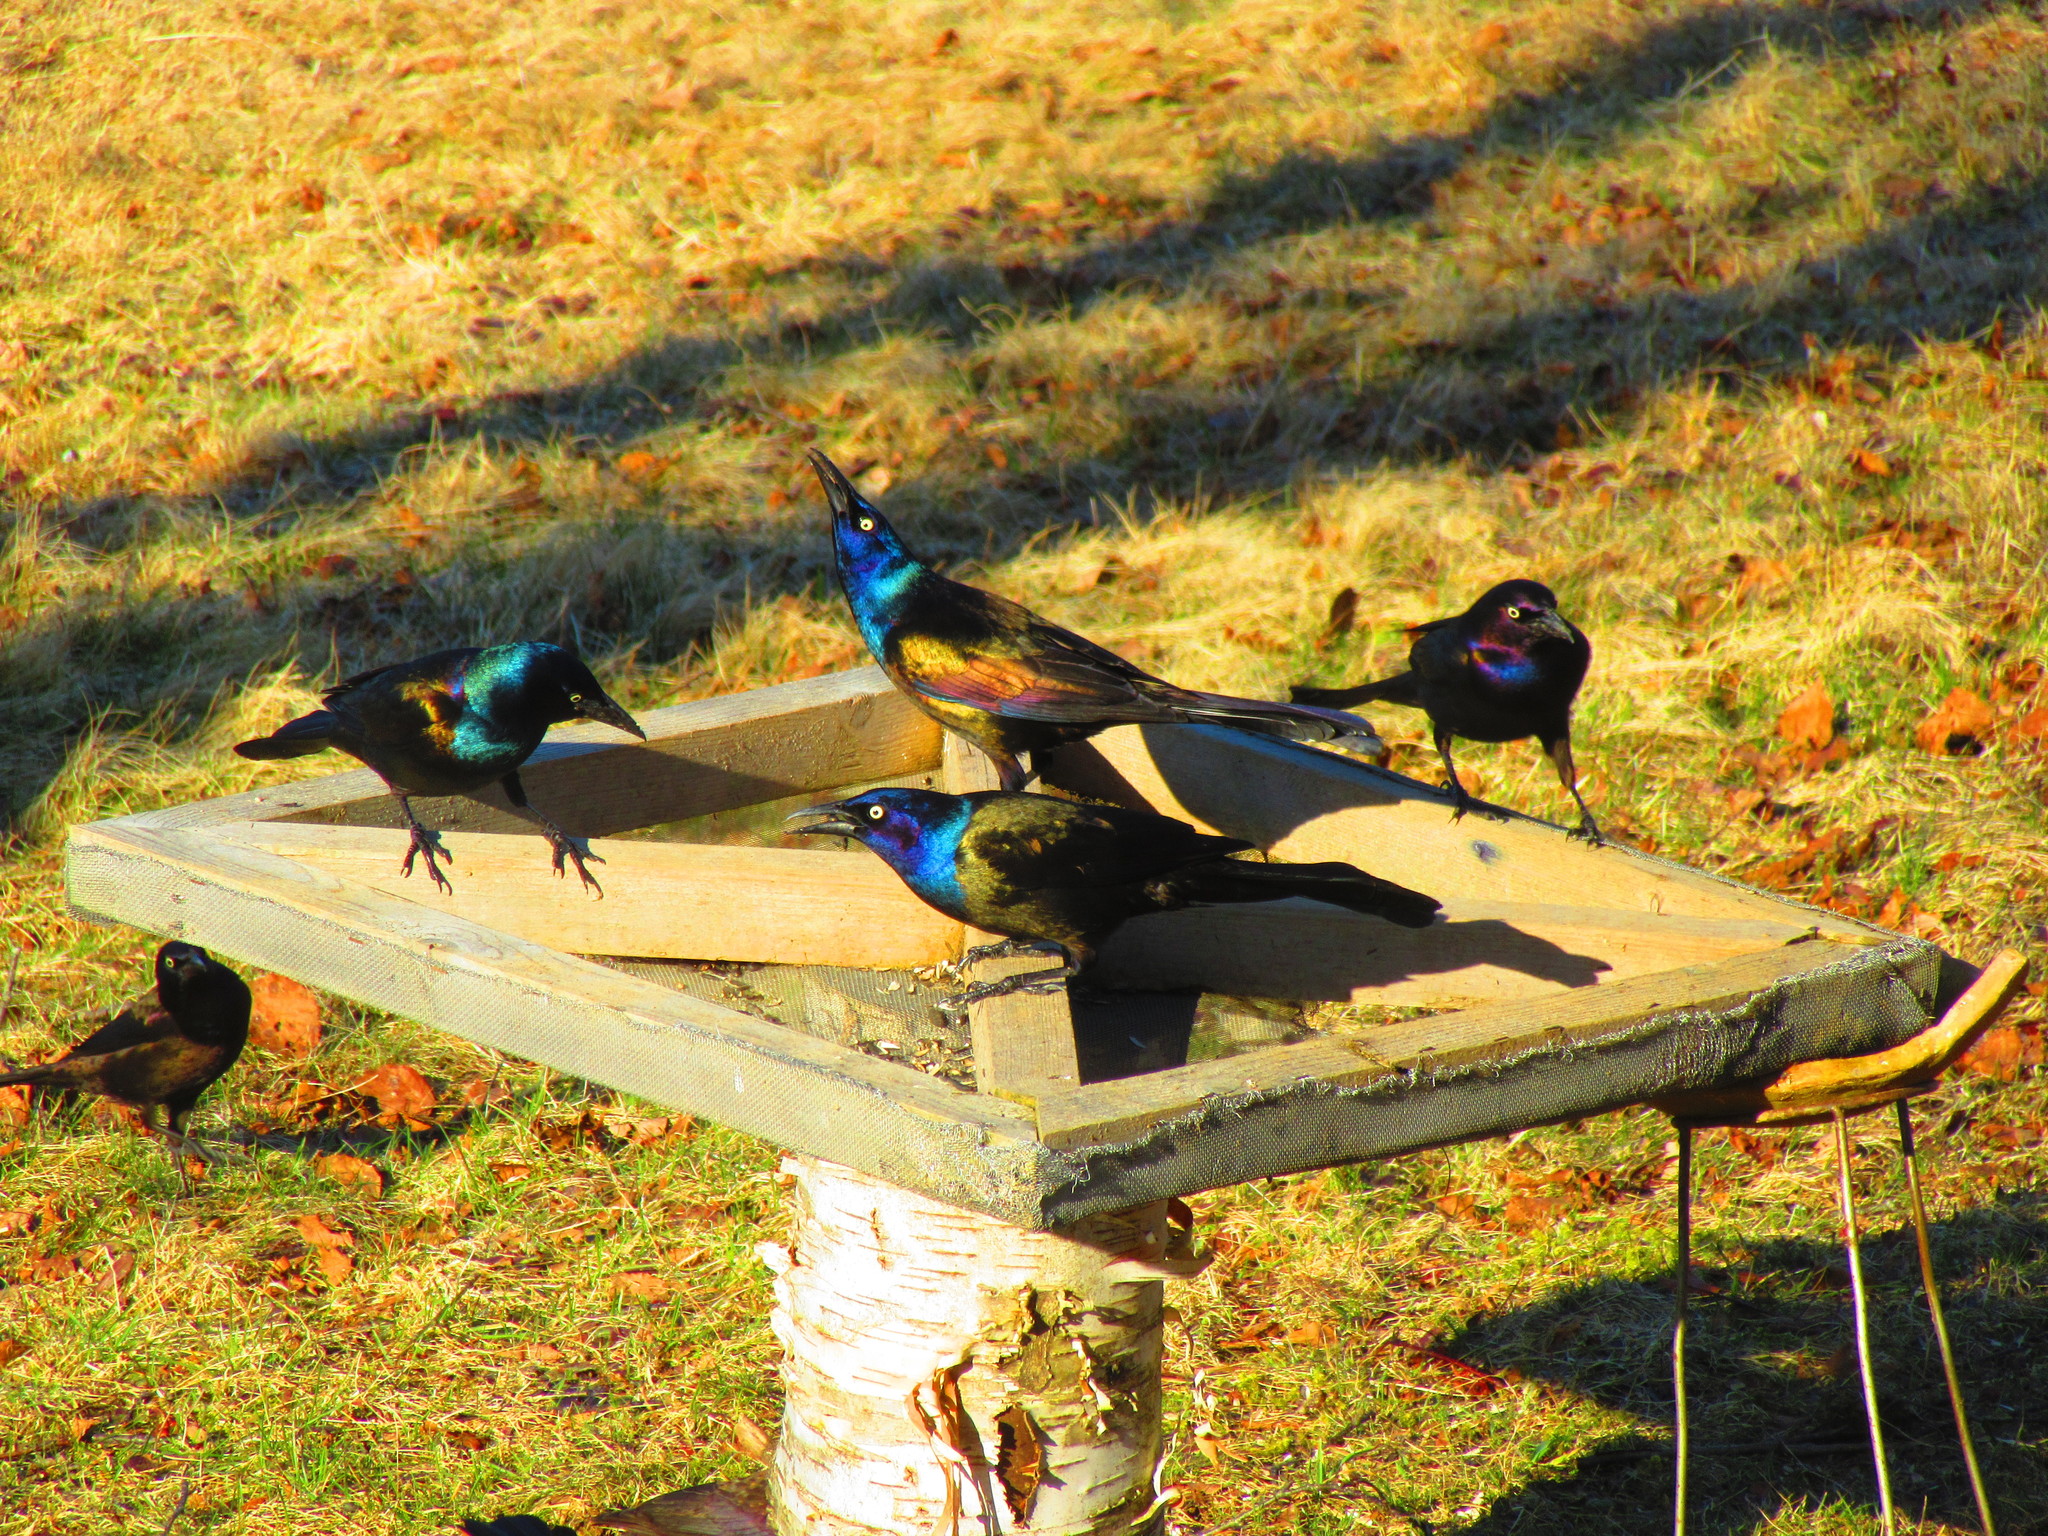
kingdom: Animalia
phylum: Chordata
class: Aves
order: Passeriformes
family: Icteridae
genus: Quiscalus
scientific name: Quiscalus quiscula
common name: Common grackle
